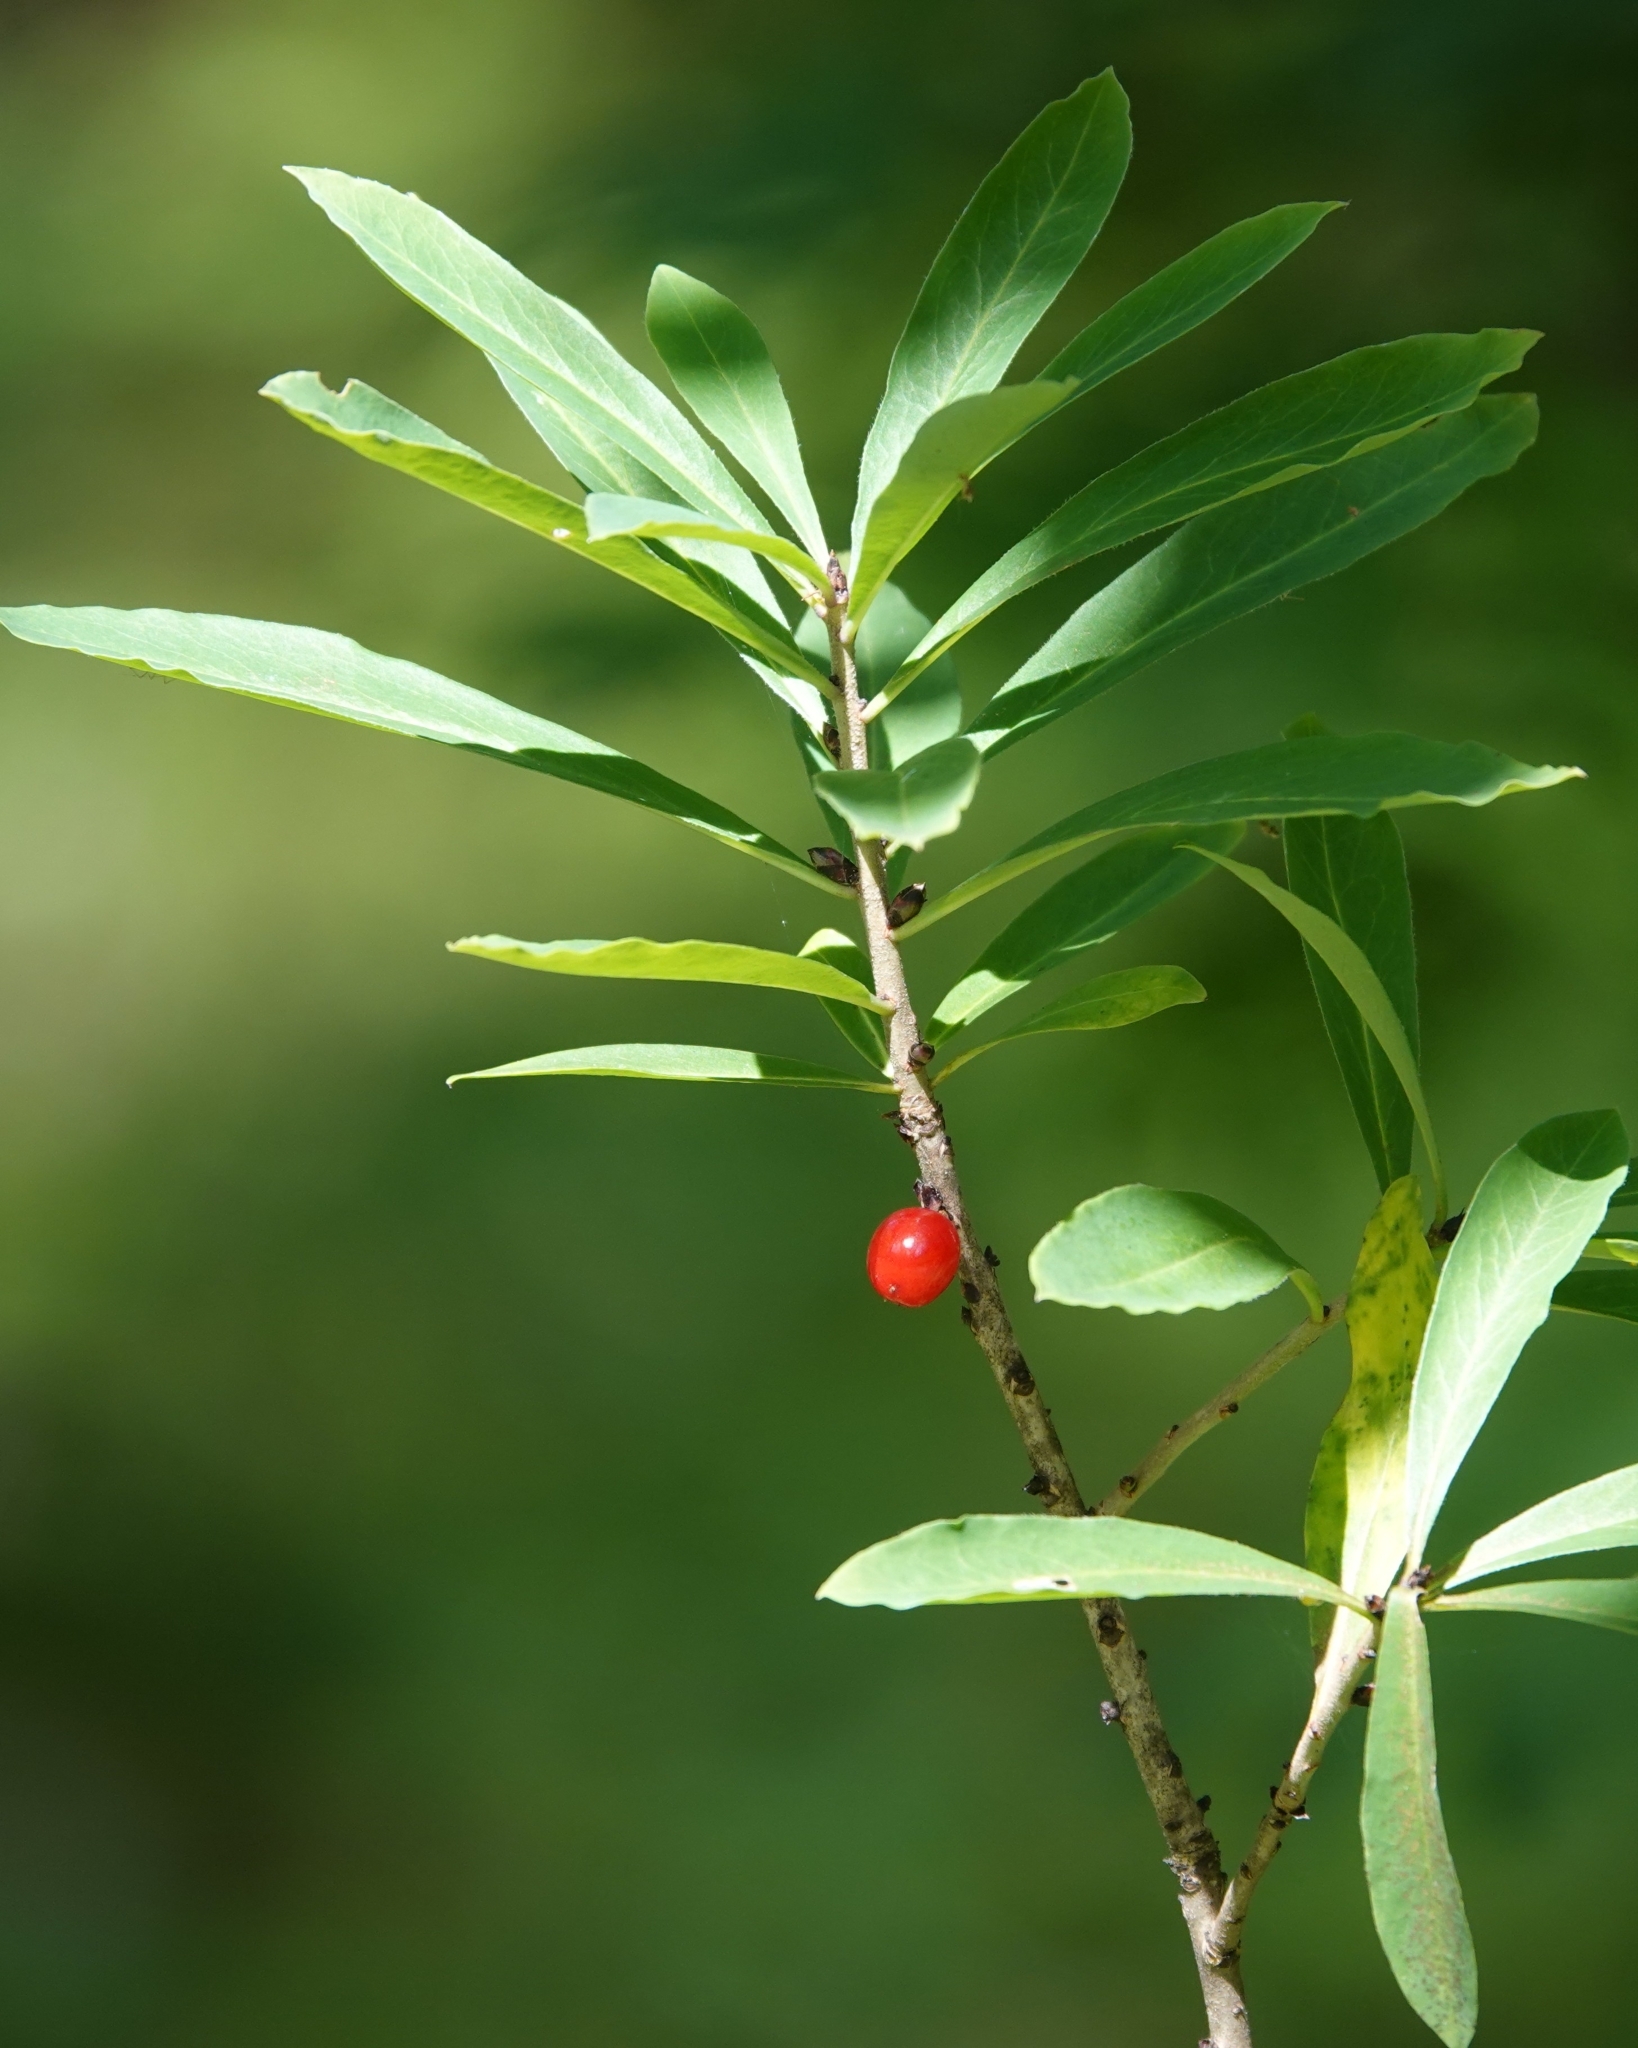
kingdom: Plantae
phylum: Tracheophyta
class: Magnoliopsida
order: Malvales
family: Thymelaeaceae
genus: Daphne
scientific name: Daphne mezereum
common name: Mezereon
